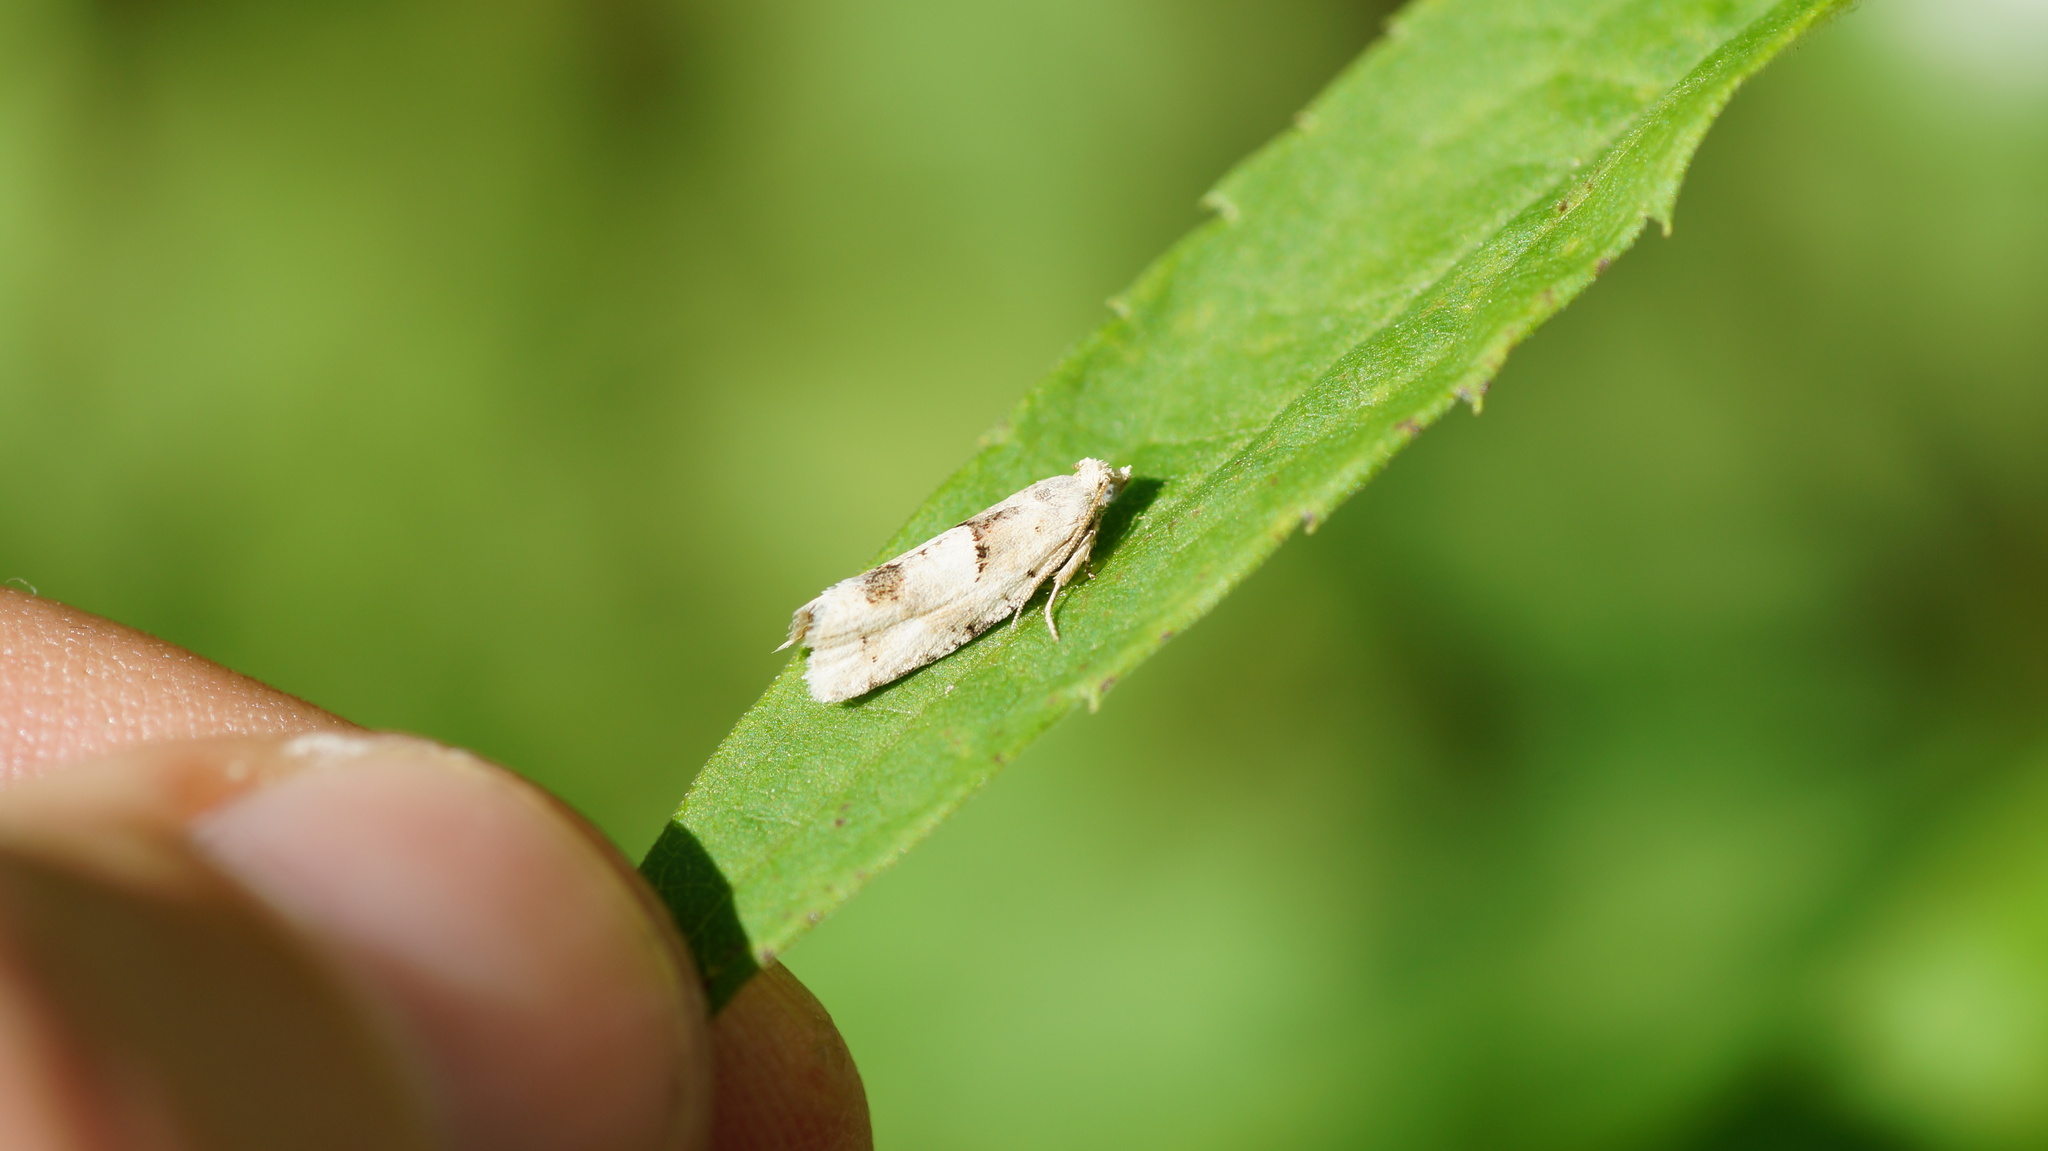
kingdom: Animalia
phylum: Arthropoda
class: Insecta
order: Lepidoptera
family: Tortricidae
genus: Epinotia
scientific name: Epinotia bilunana
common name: Crescent bell
